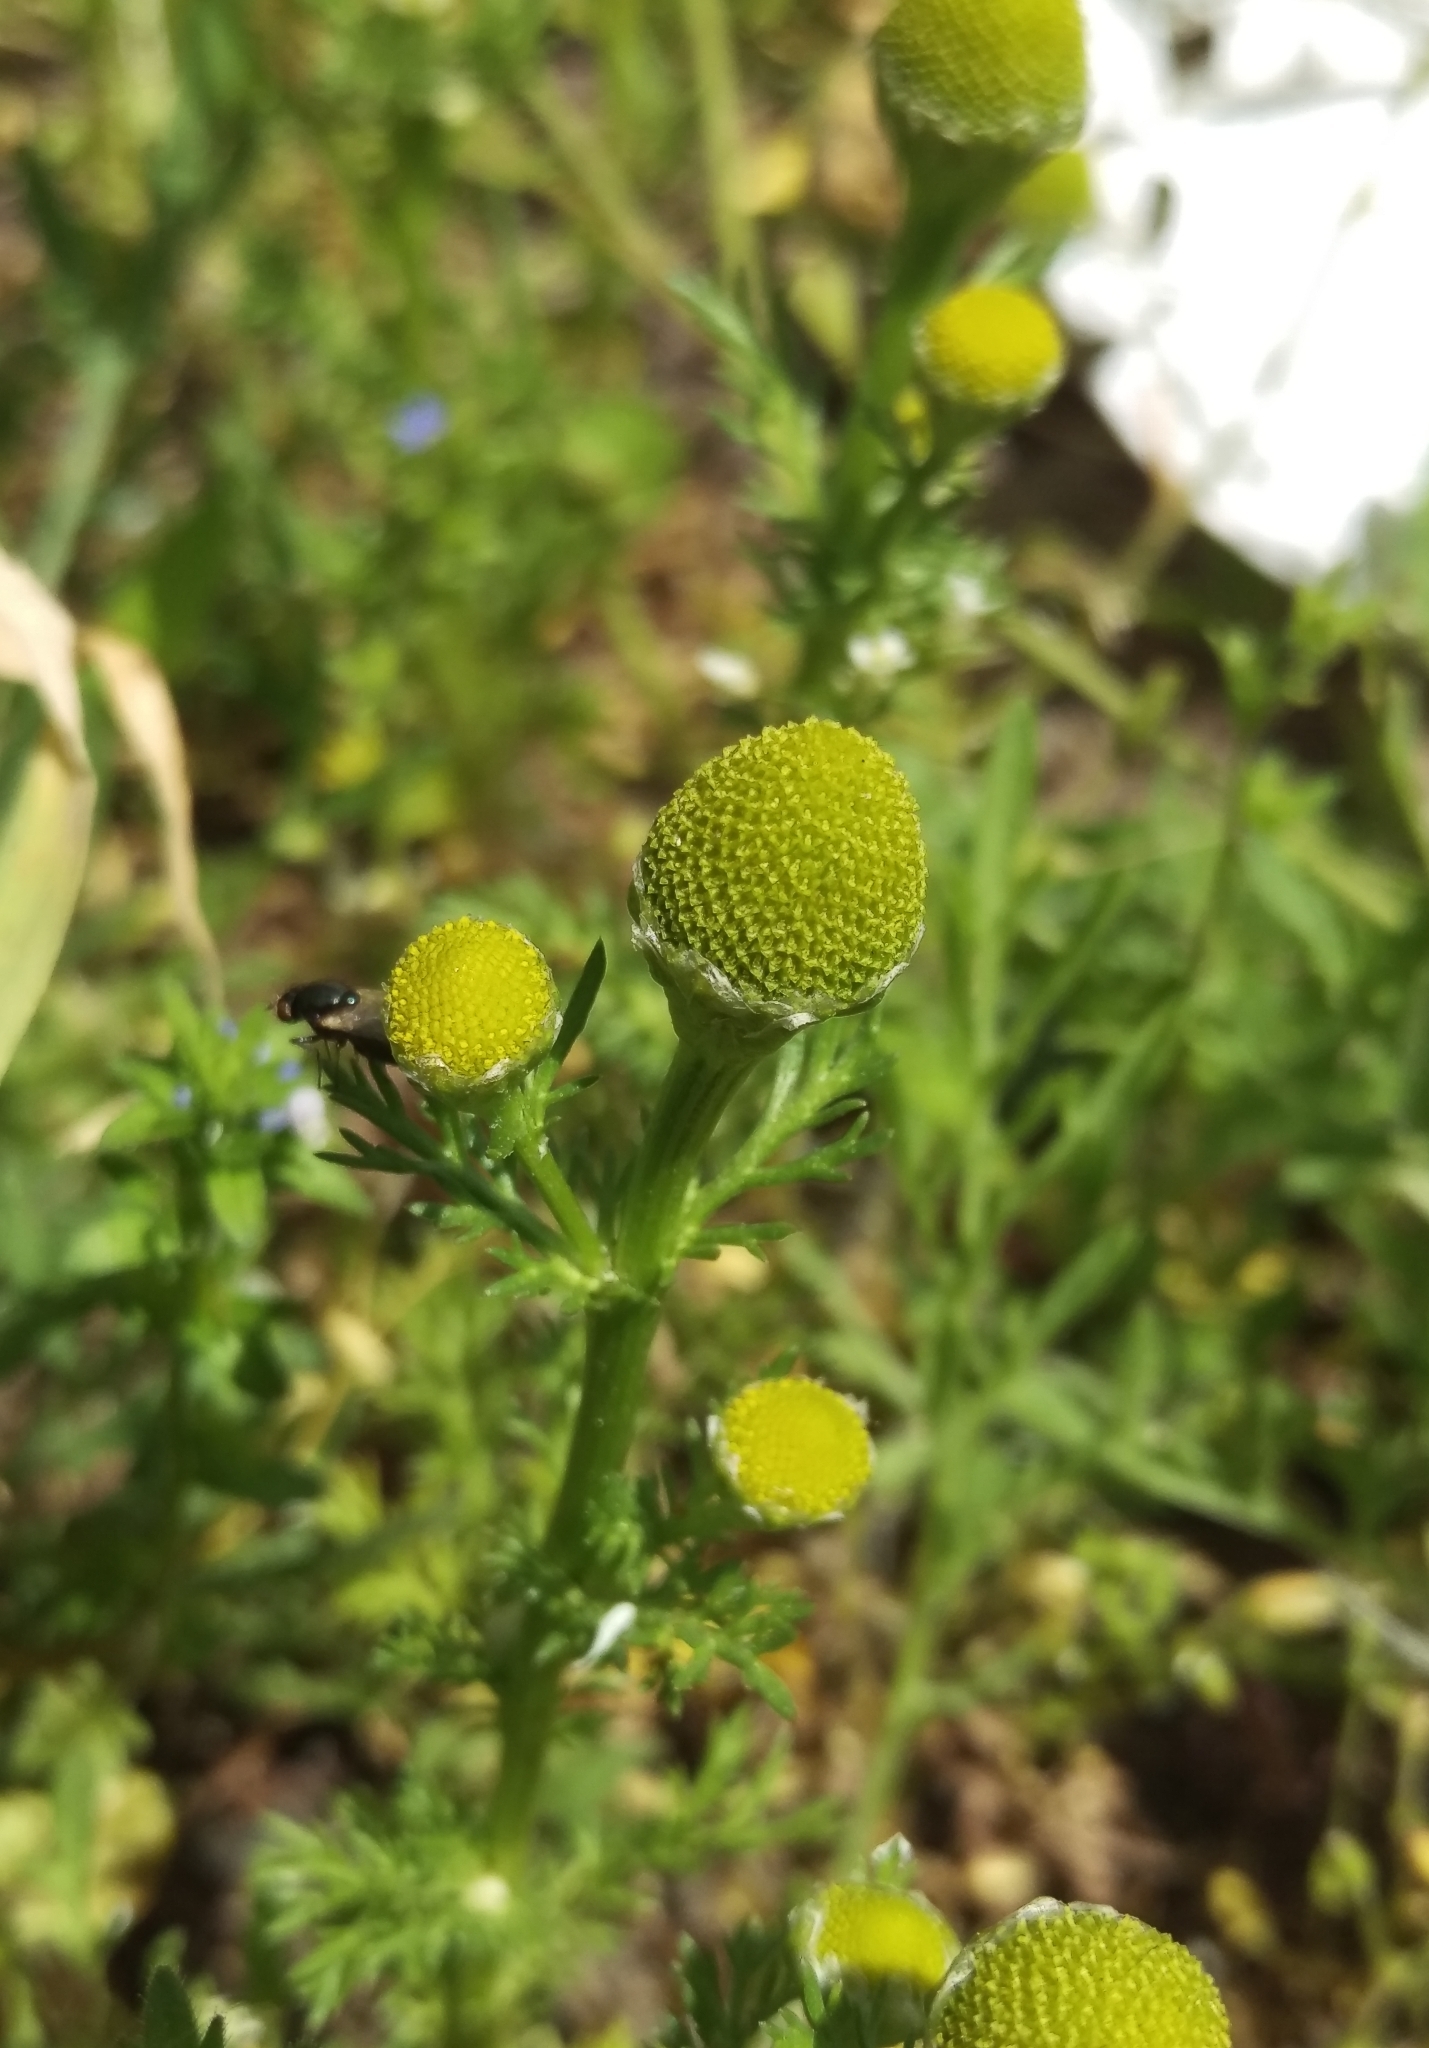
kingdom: Plantae
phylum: Tracheophyta
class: Magnoliopsida
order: Asterales
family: Asteraceae
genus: Matricaria
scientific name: Matricaria discoidea
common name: Disc mayweed
